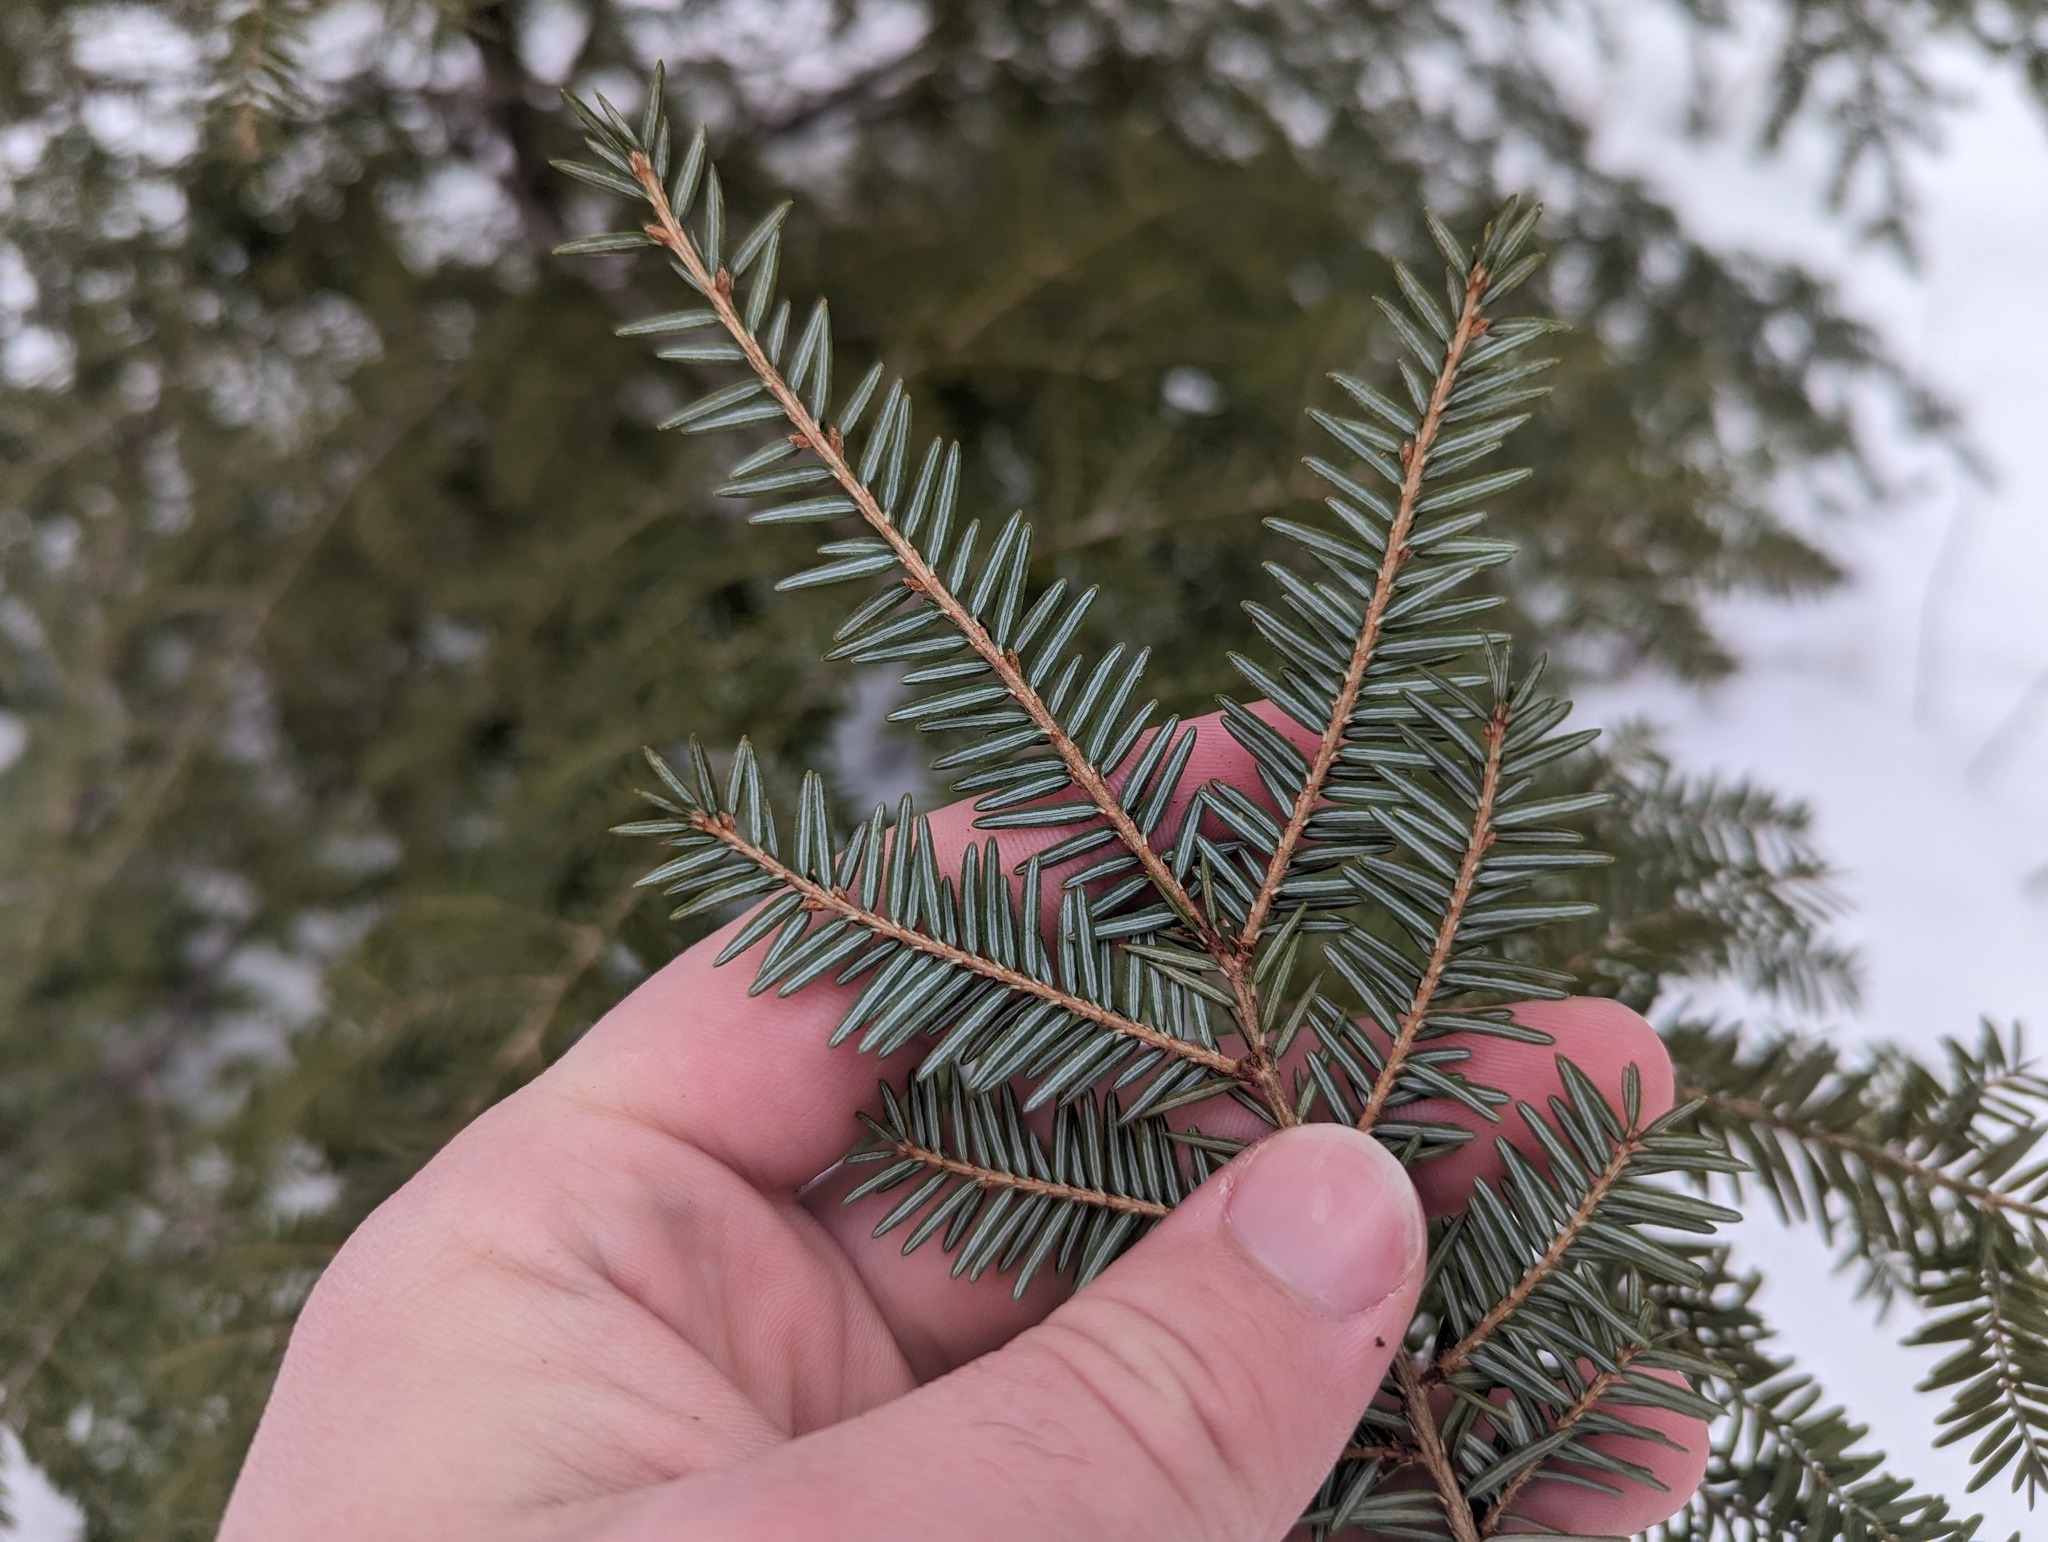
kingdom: Plantae
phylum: Tracheophyta
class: Pinopsida
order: Pinales
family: Pinaceae
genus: Tsuga
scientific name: Tsuga canadensis
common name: Eastern hemlock
